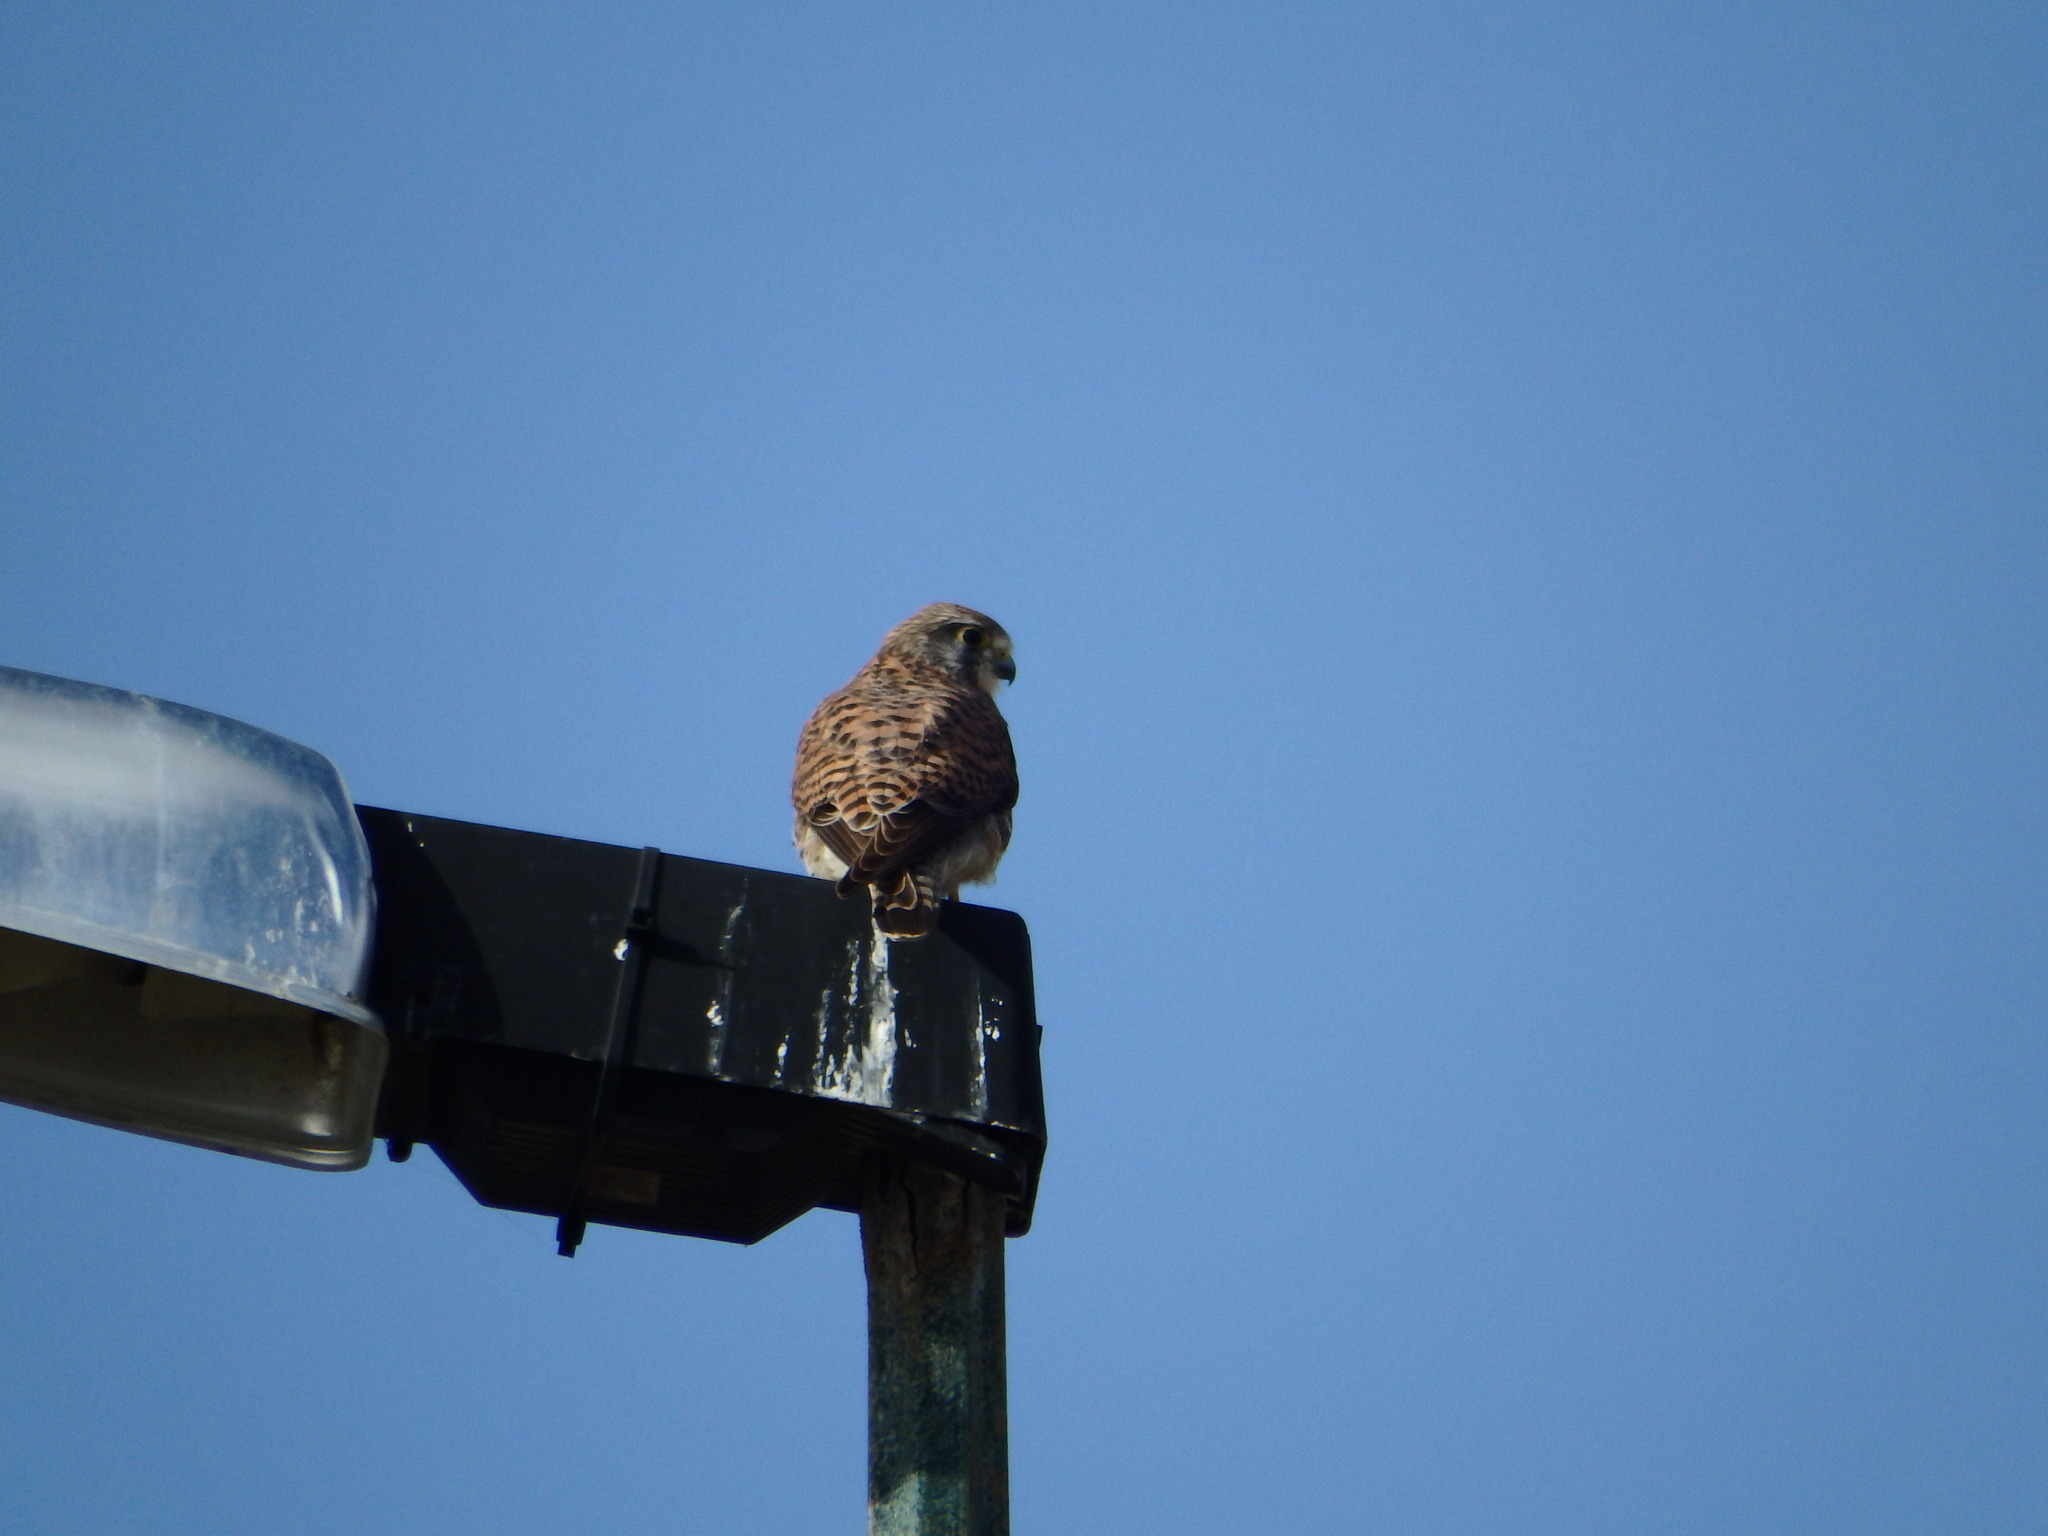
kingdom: Animalia
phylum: Chordata
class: Aves
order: Falconiformes
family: Falconidae
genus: Falco
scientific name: Falco tinnunculus
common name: Common kestrel
